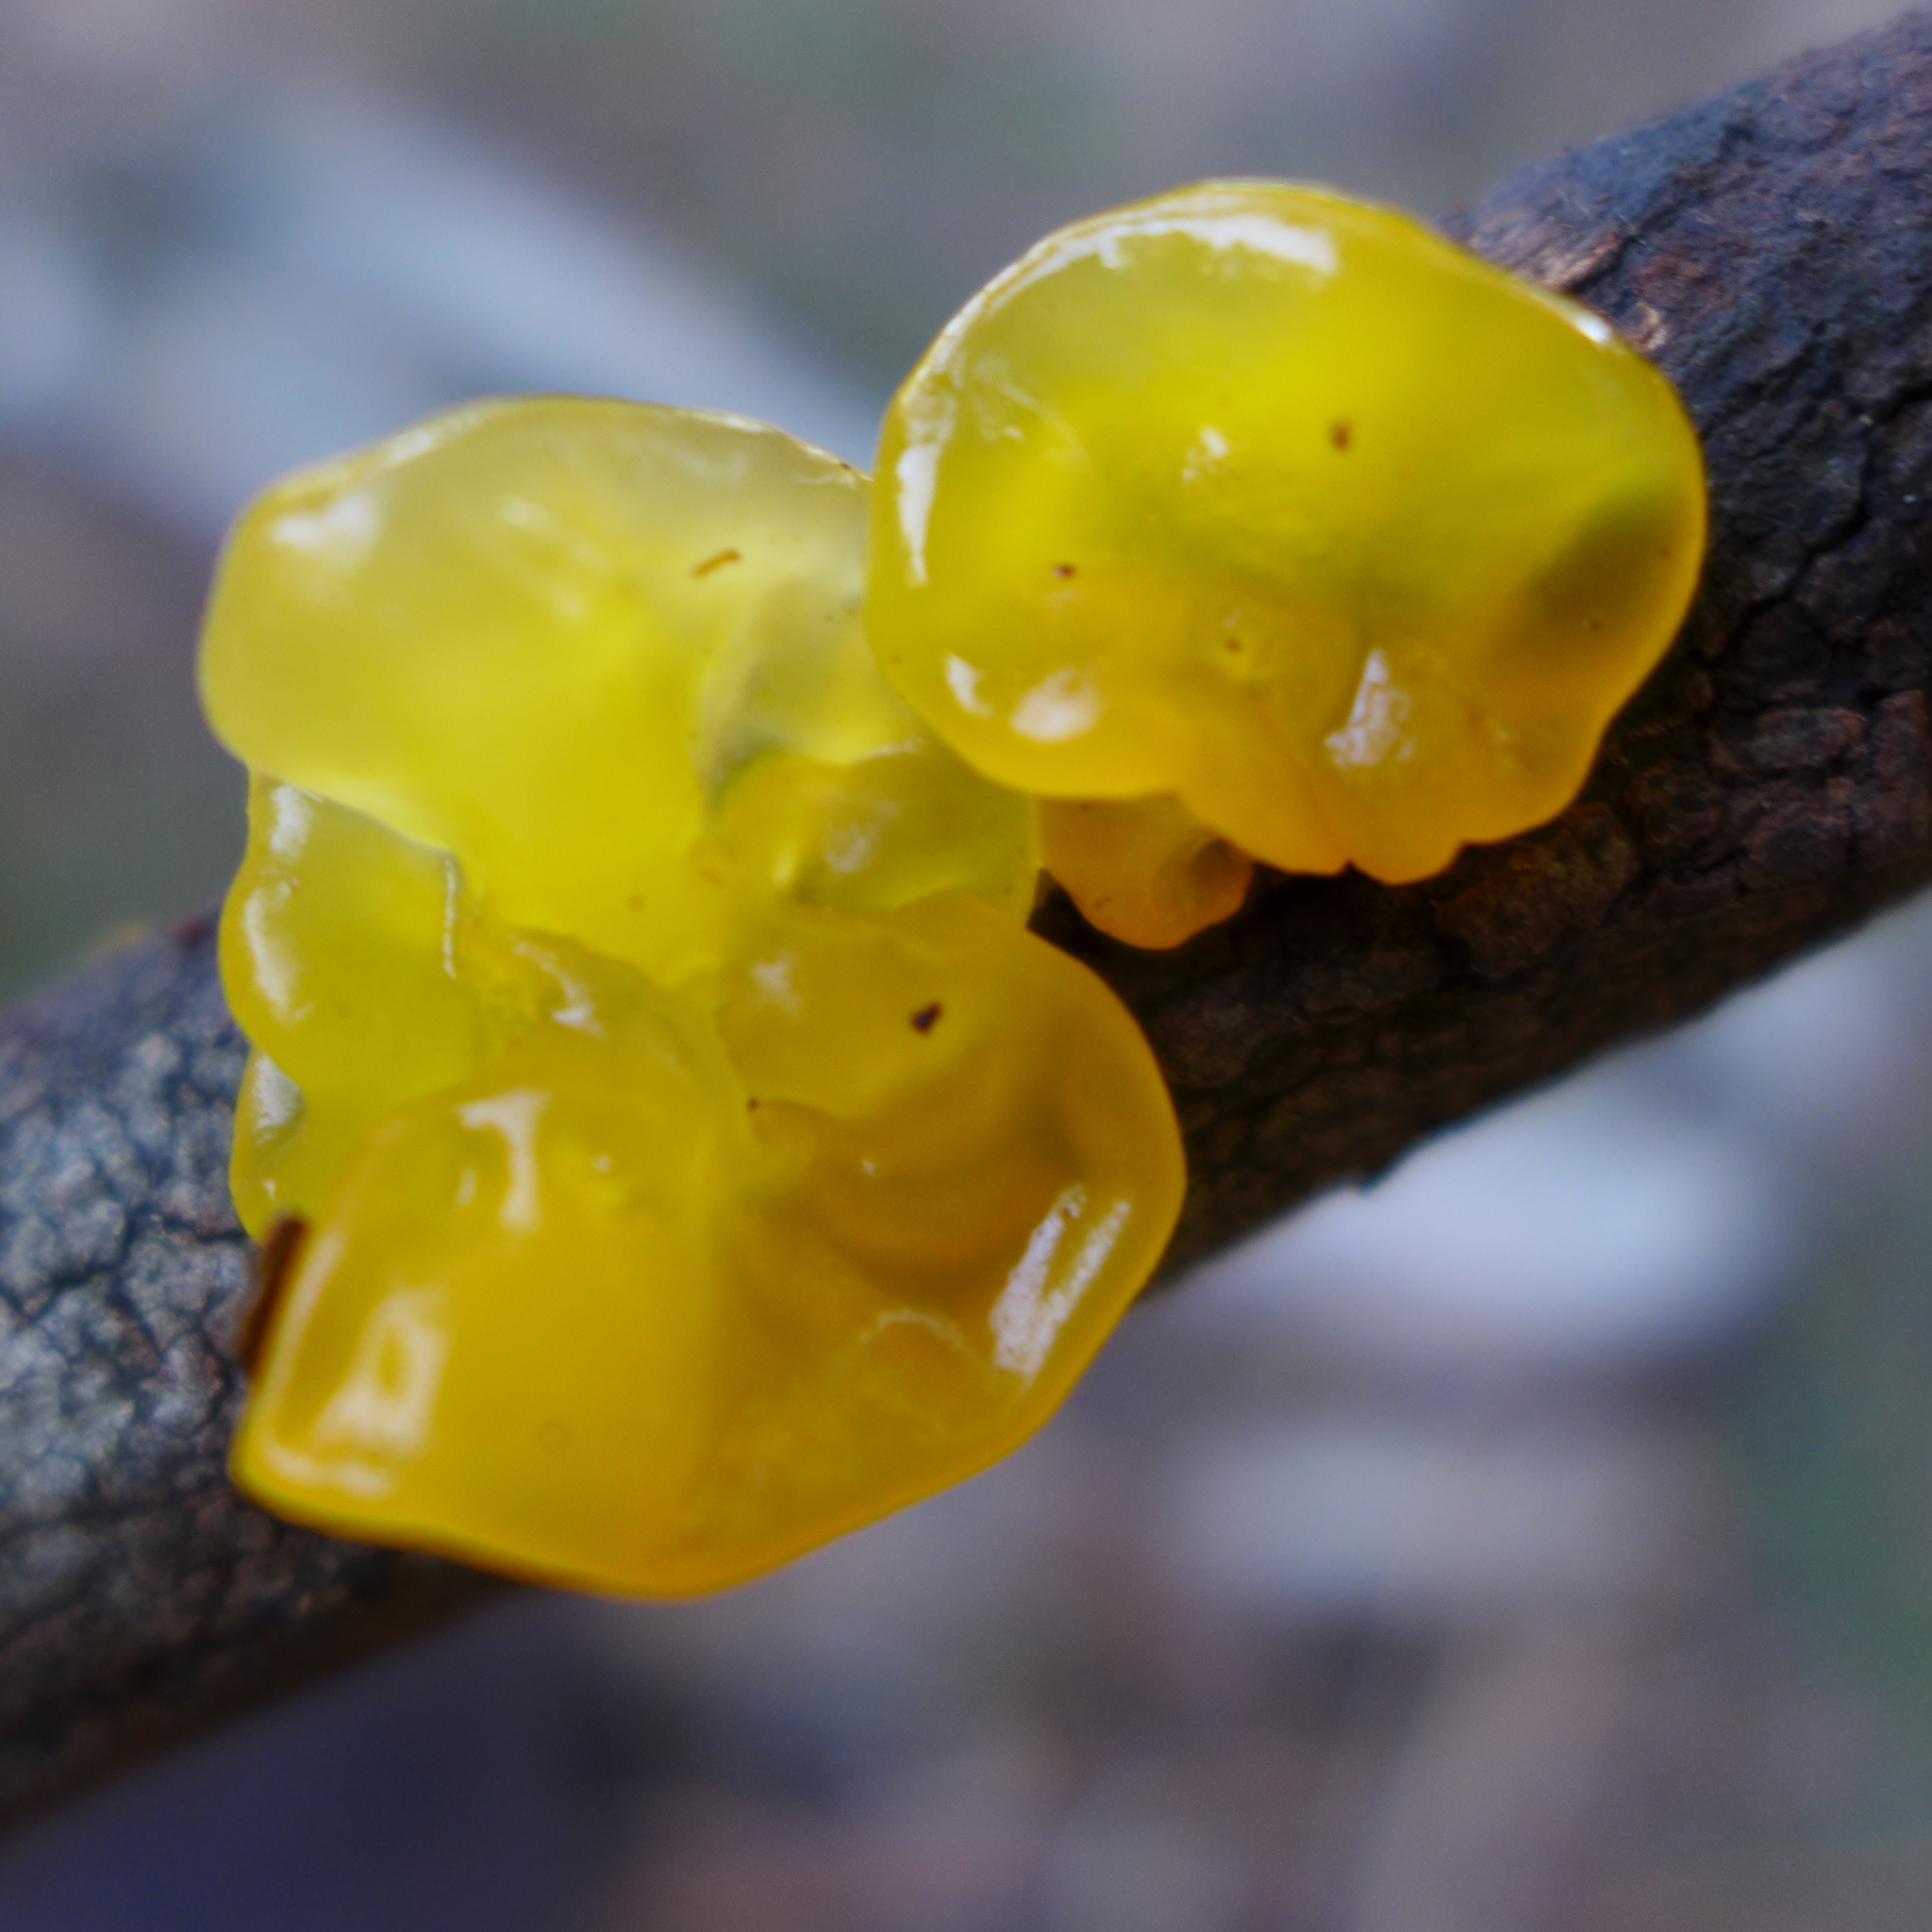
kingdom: Fungi
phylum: Basidiomycota
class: Tremellomycetes
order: Tremellales
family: Tremellaceae
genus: Tremella
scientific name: Tremella mesenterica
